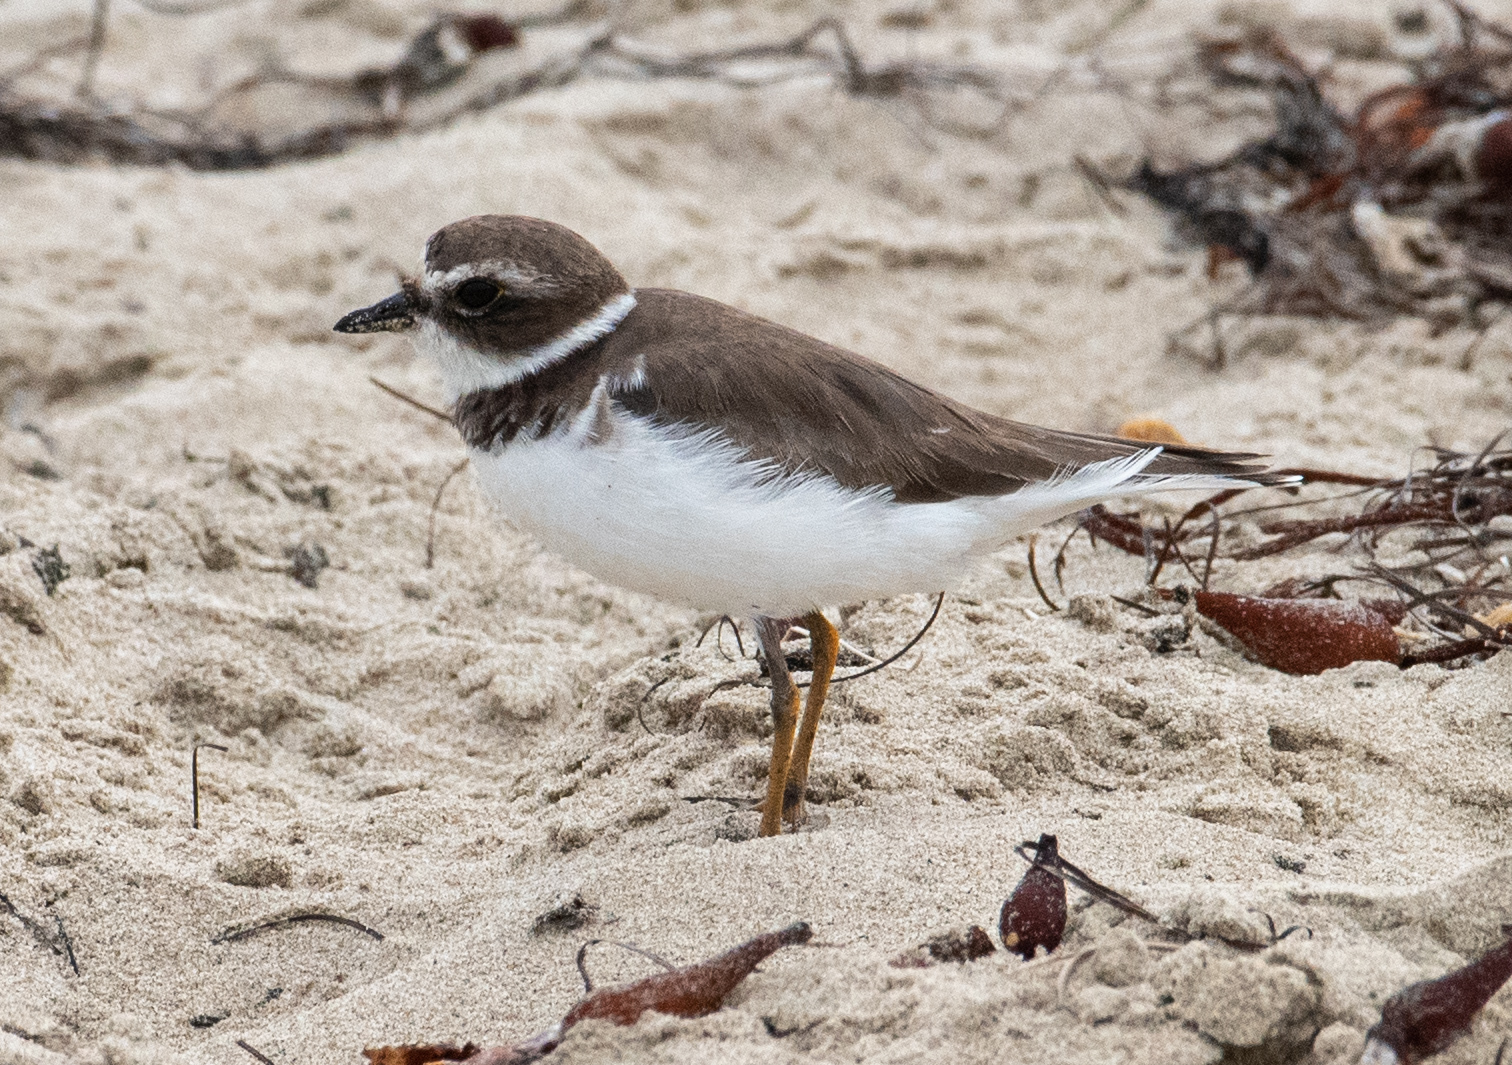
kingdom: Animalia
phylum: Chordata
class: Aves
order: Charadriiformes
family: Charadriidae
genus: Charadrius
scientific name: Charadrius semipalmatus
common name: Semipalmated plover
